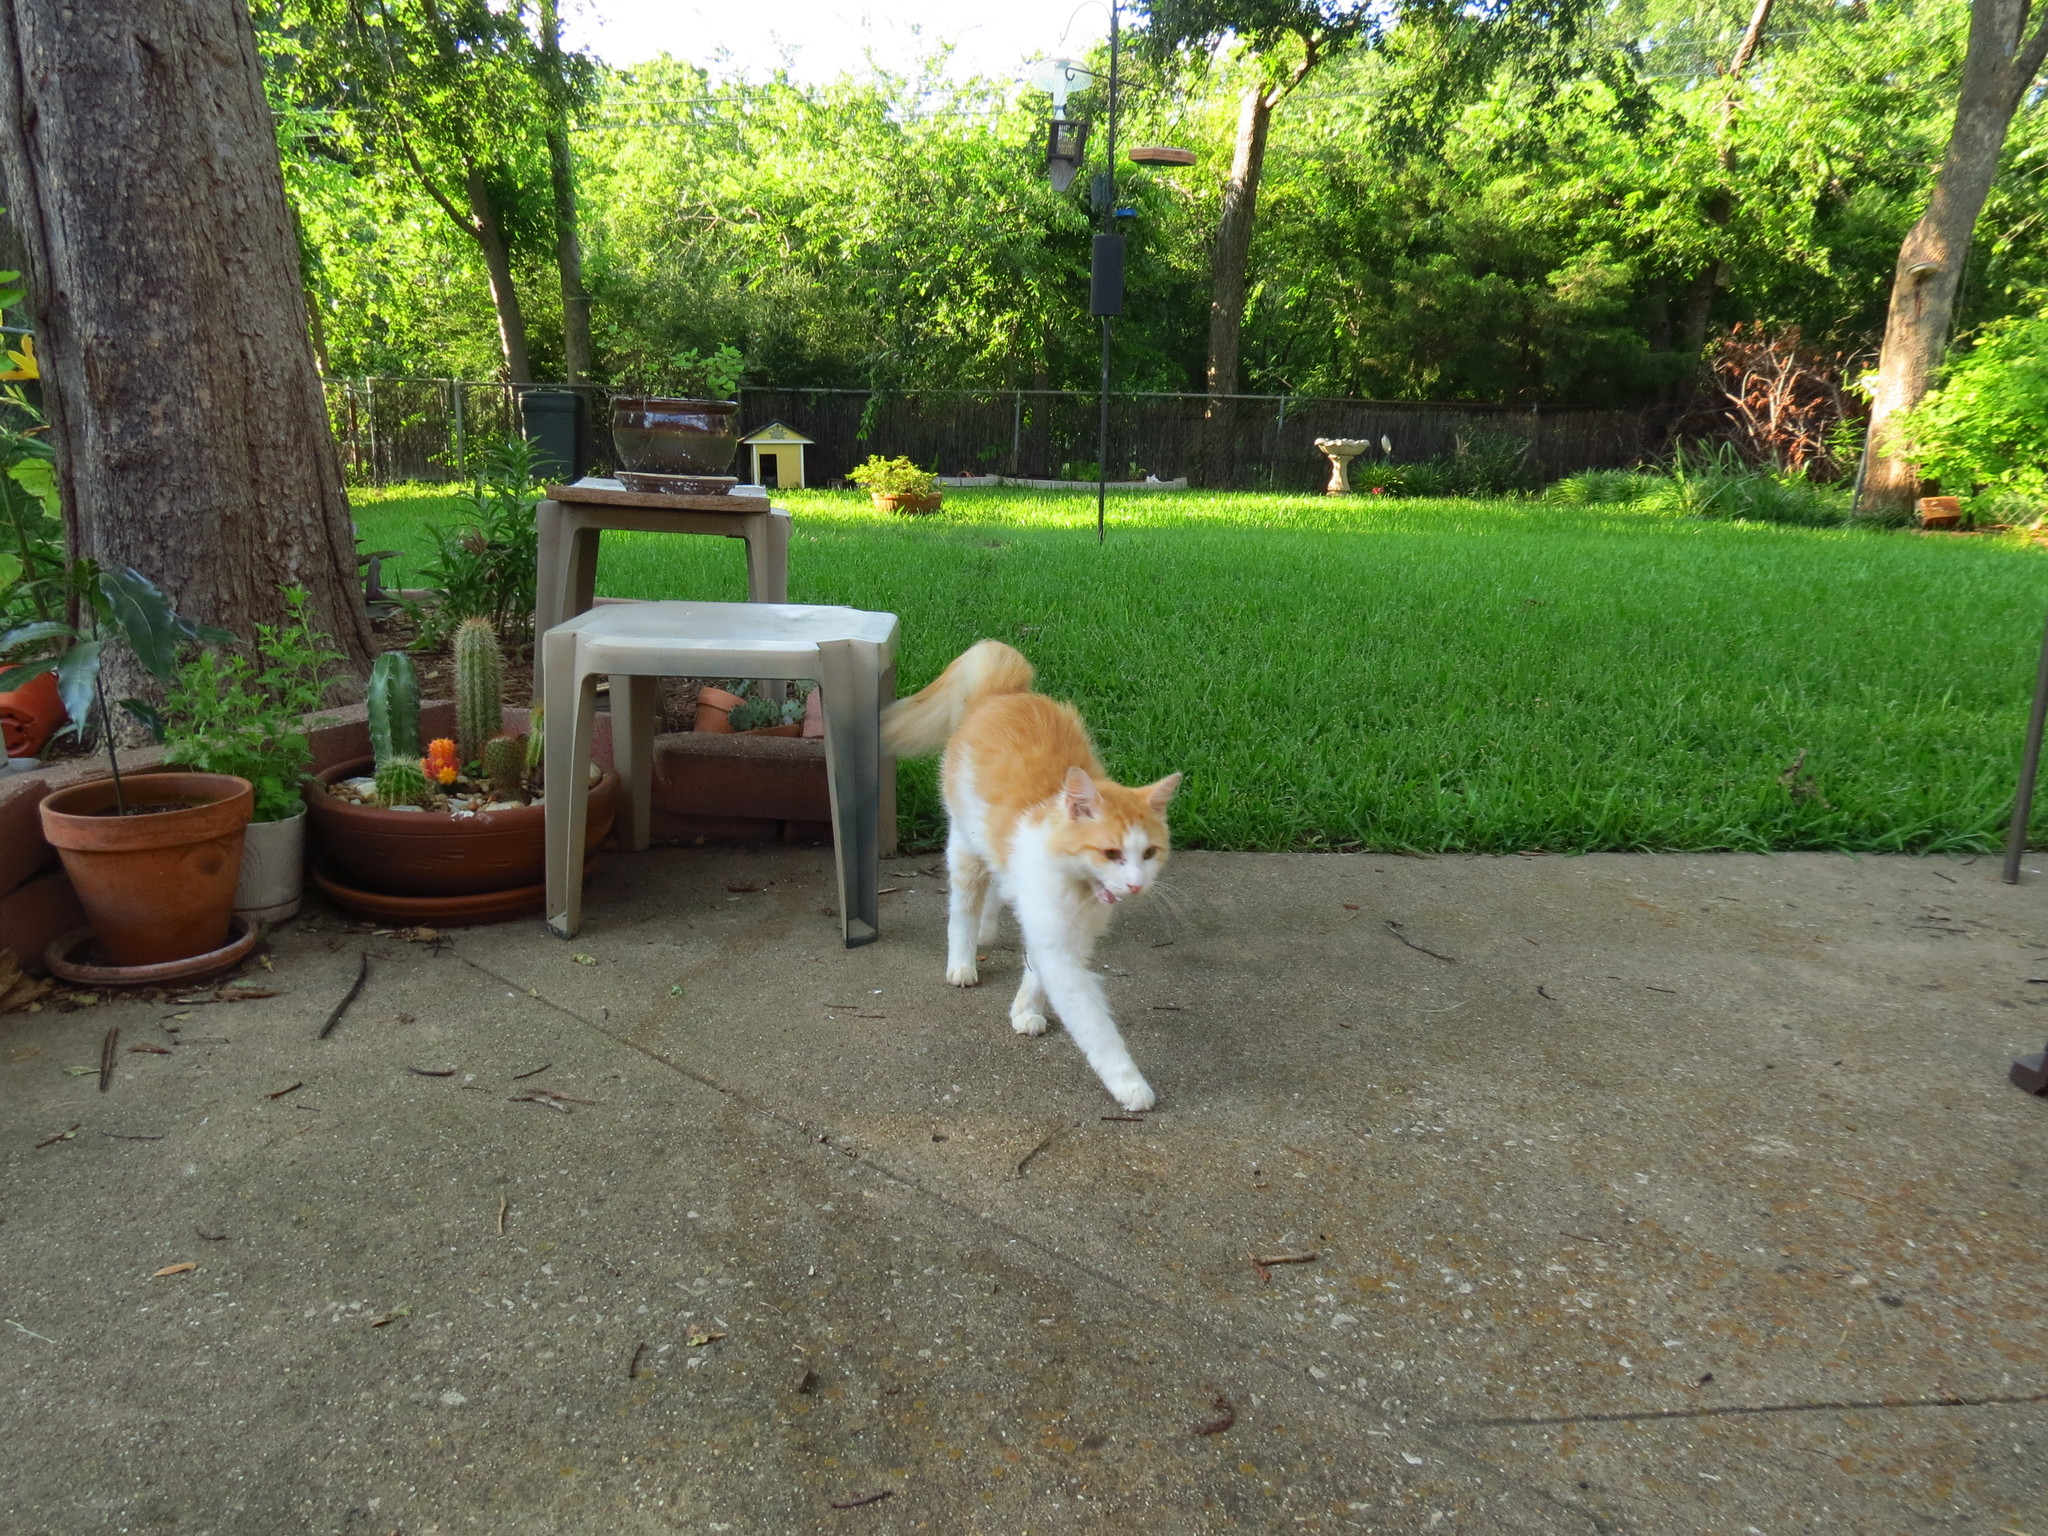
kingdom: Animalia
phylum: Chordata
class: Mammalia
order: Carnivora
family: Felidae
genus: Felis
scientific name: Felis catus
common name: Domestic cat
